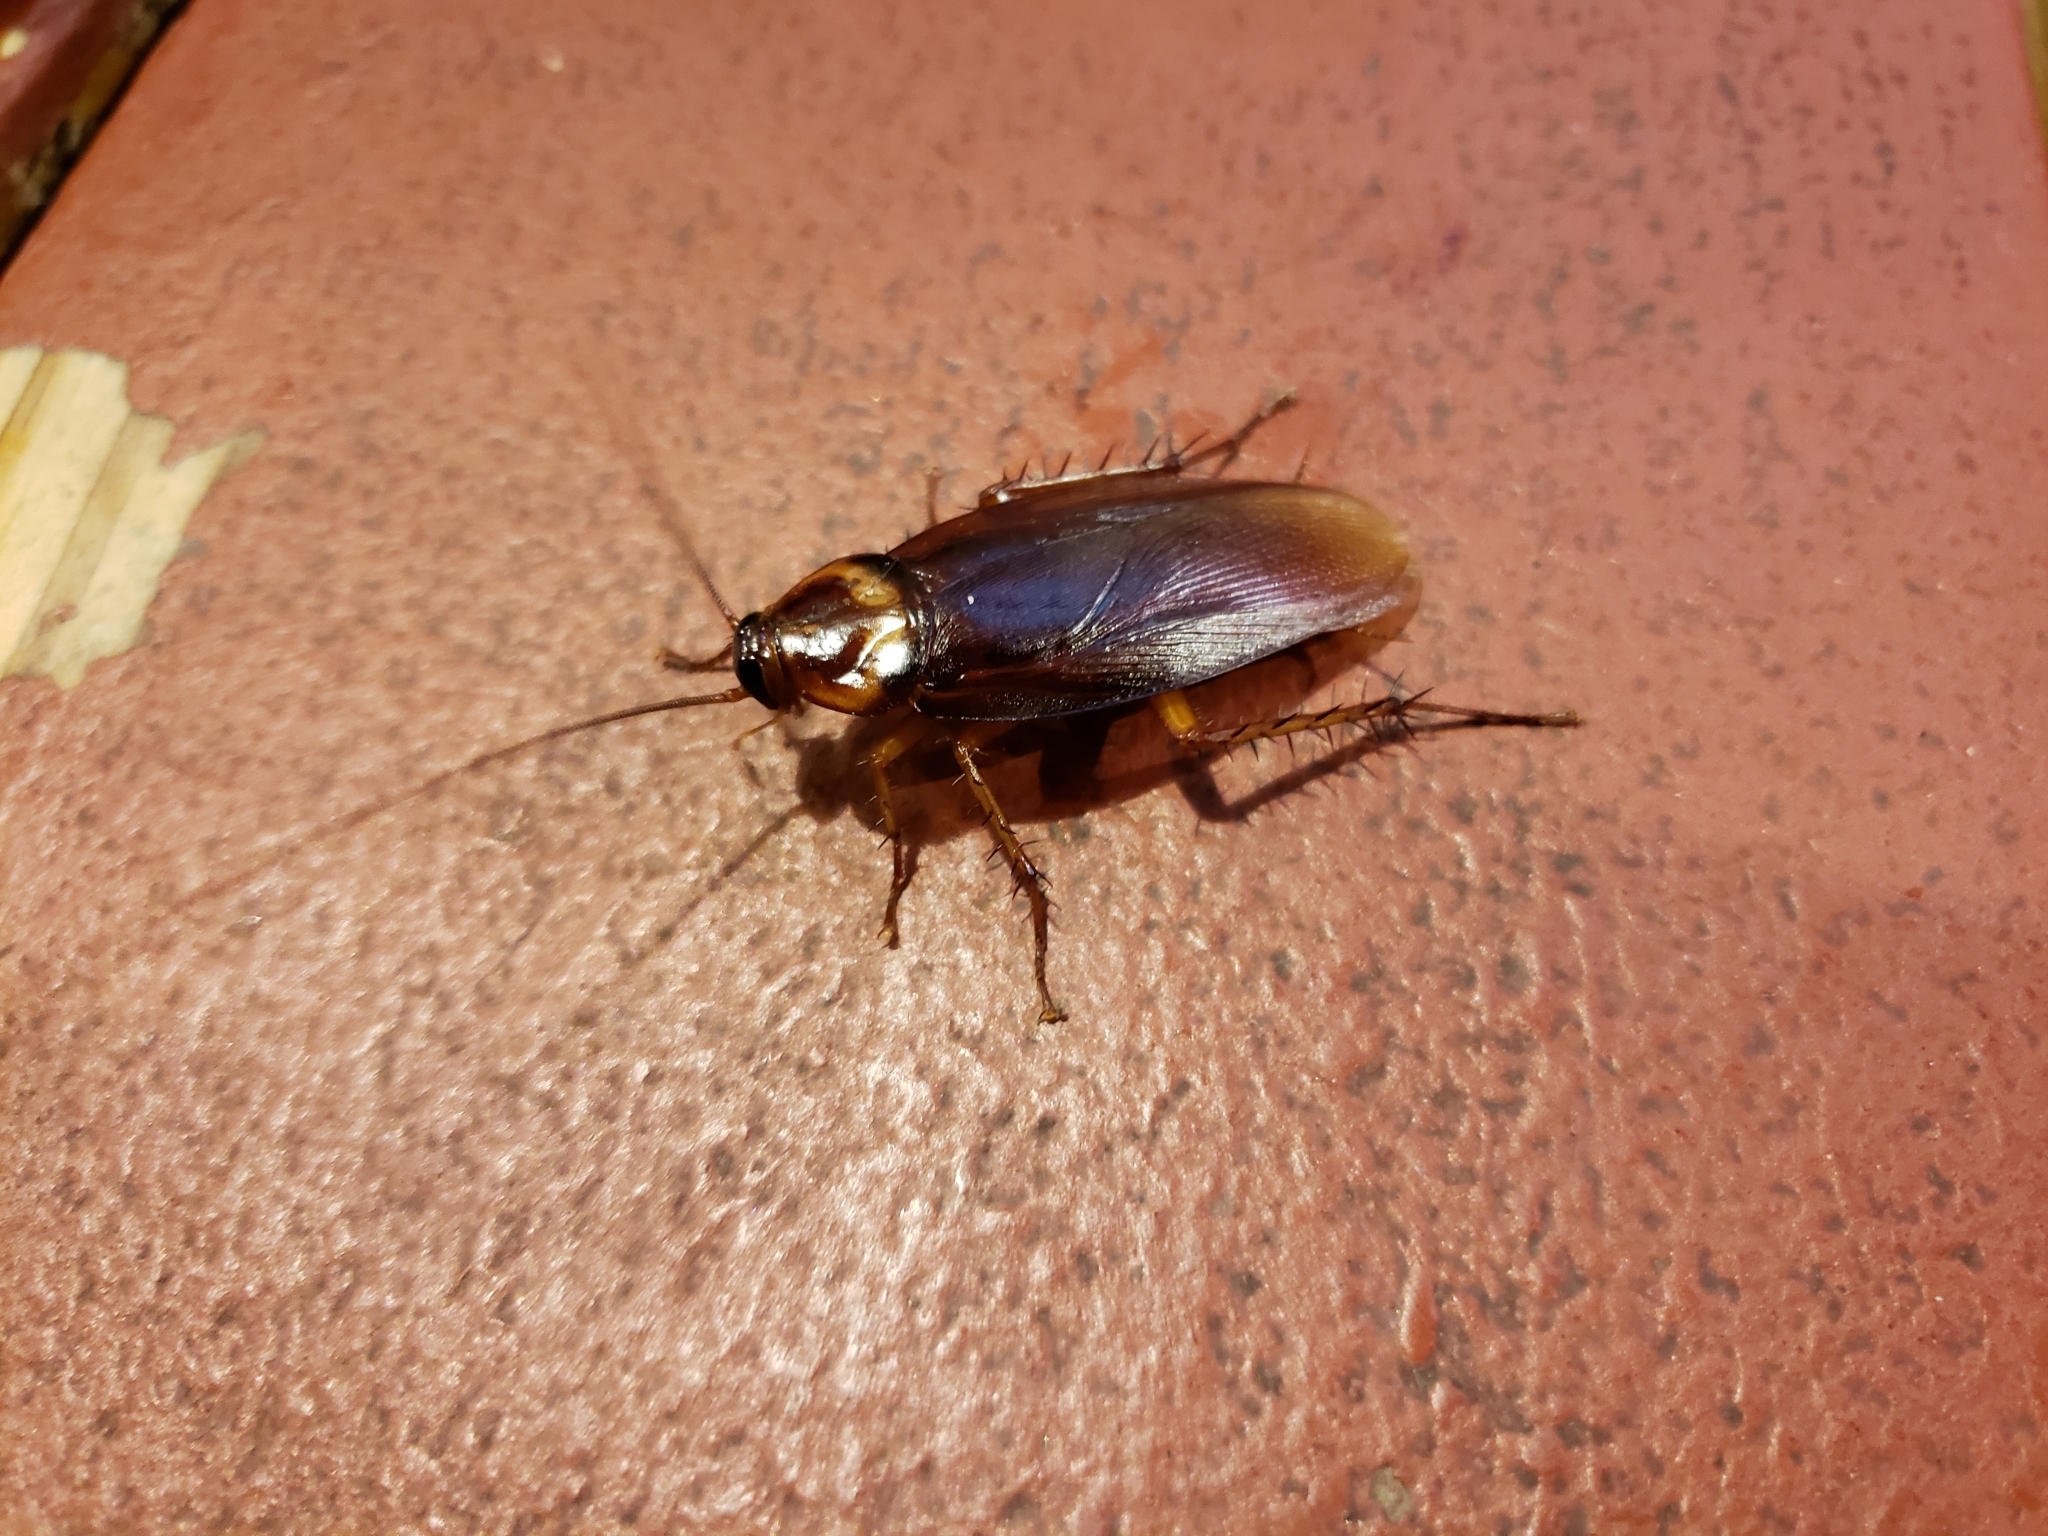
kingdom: Animalia
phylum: Arthropoda
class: Insecta
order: Blattodea
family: Blattidae
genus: Periplaneta
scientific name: Periplaneta americana
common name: American cockroach
